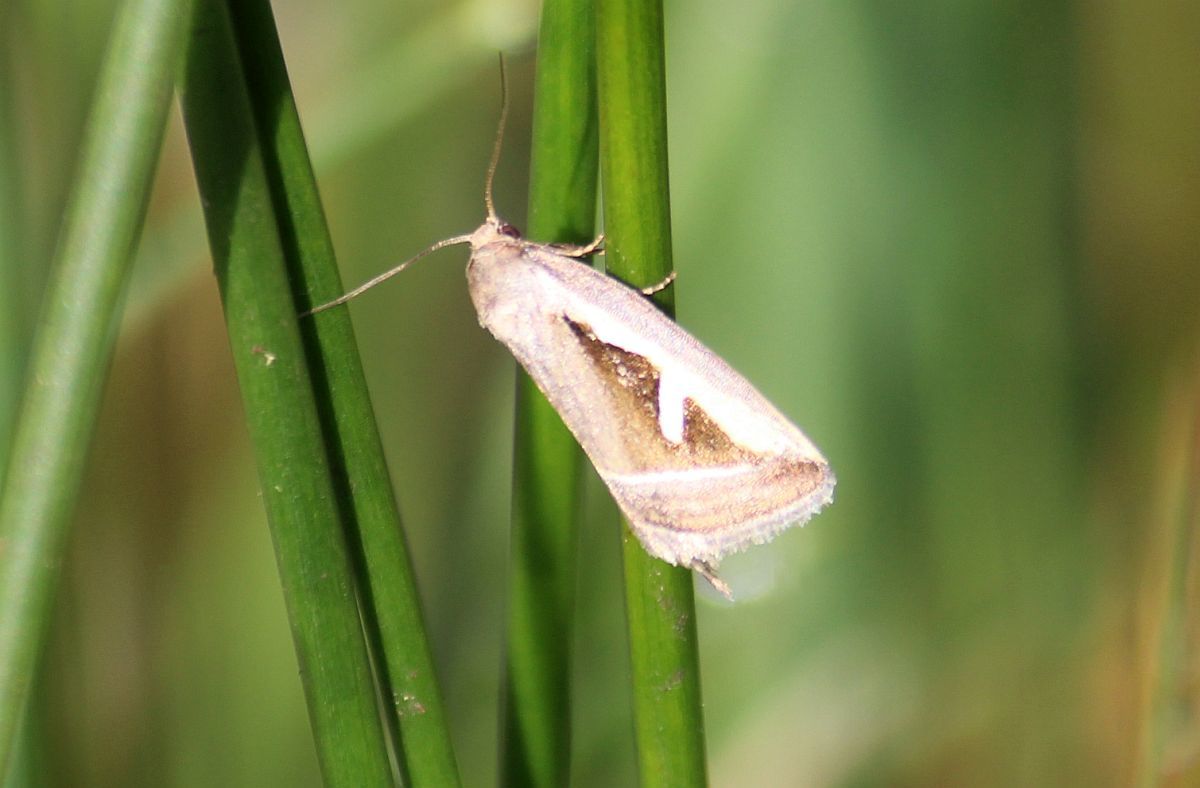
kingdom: Animalia
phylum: Arthropoda
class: Insecta
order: Lepidoptera
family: Noctuidae
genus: Deltote
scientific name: Deltote uncula
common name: Silver hook
